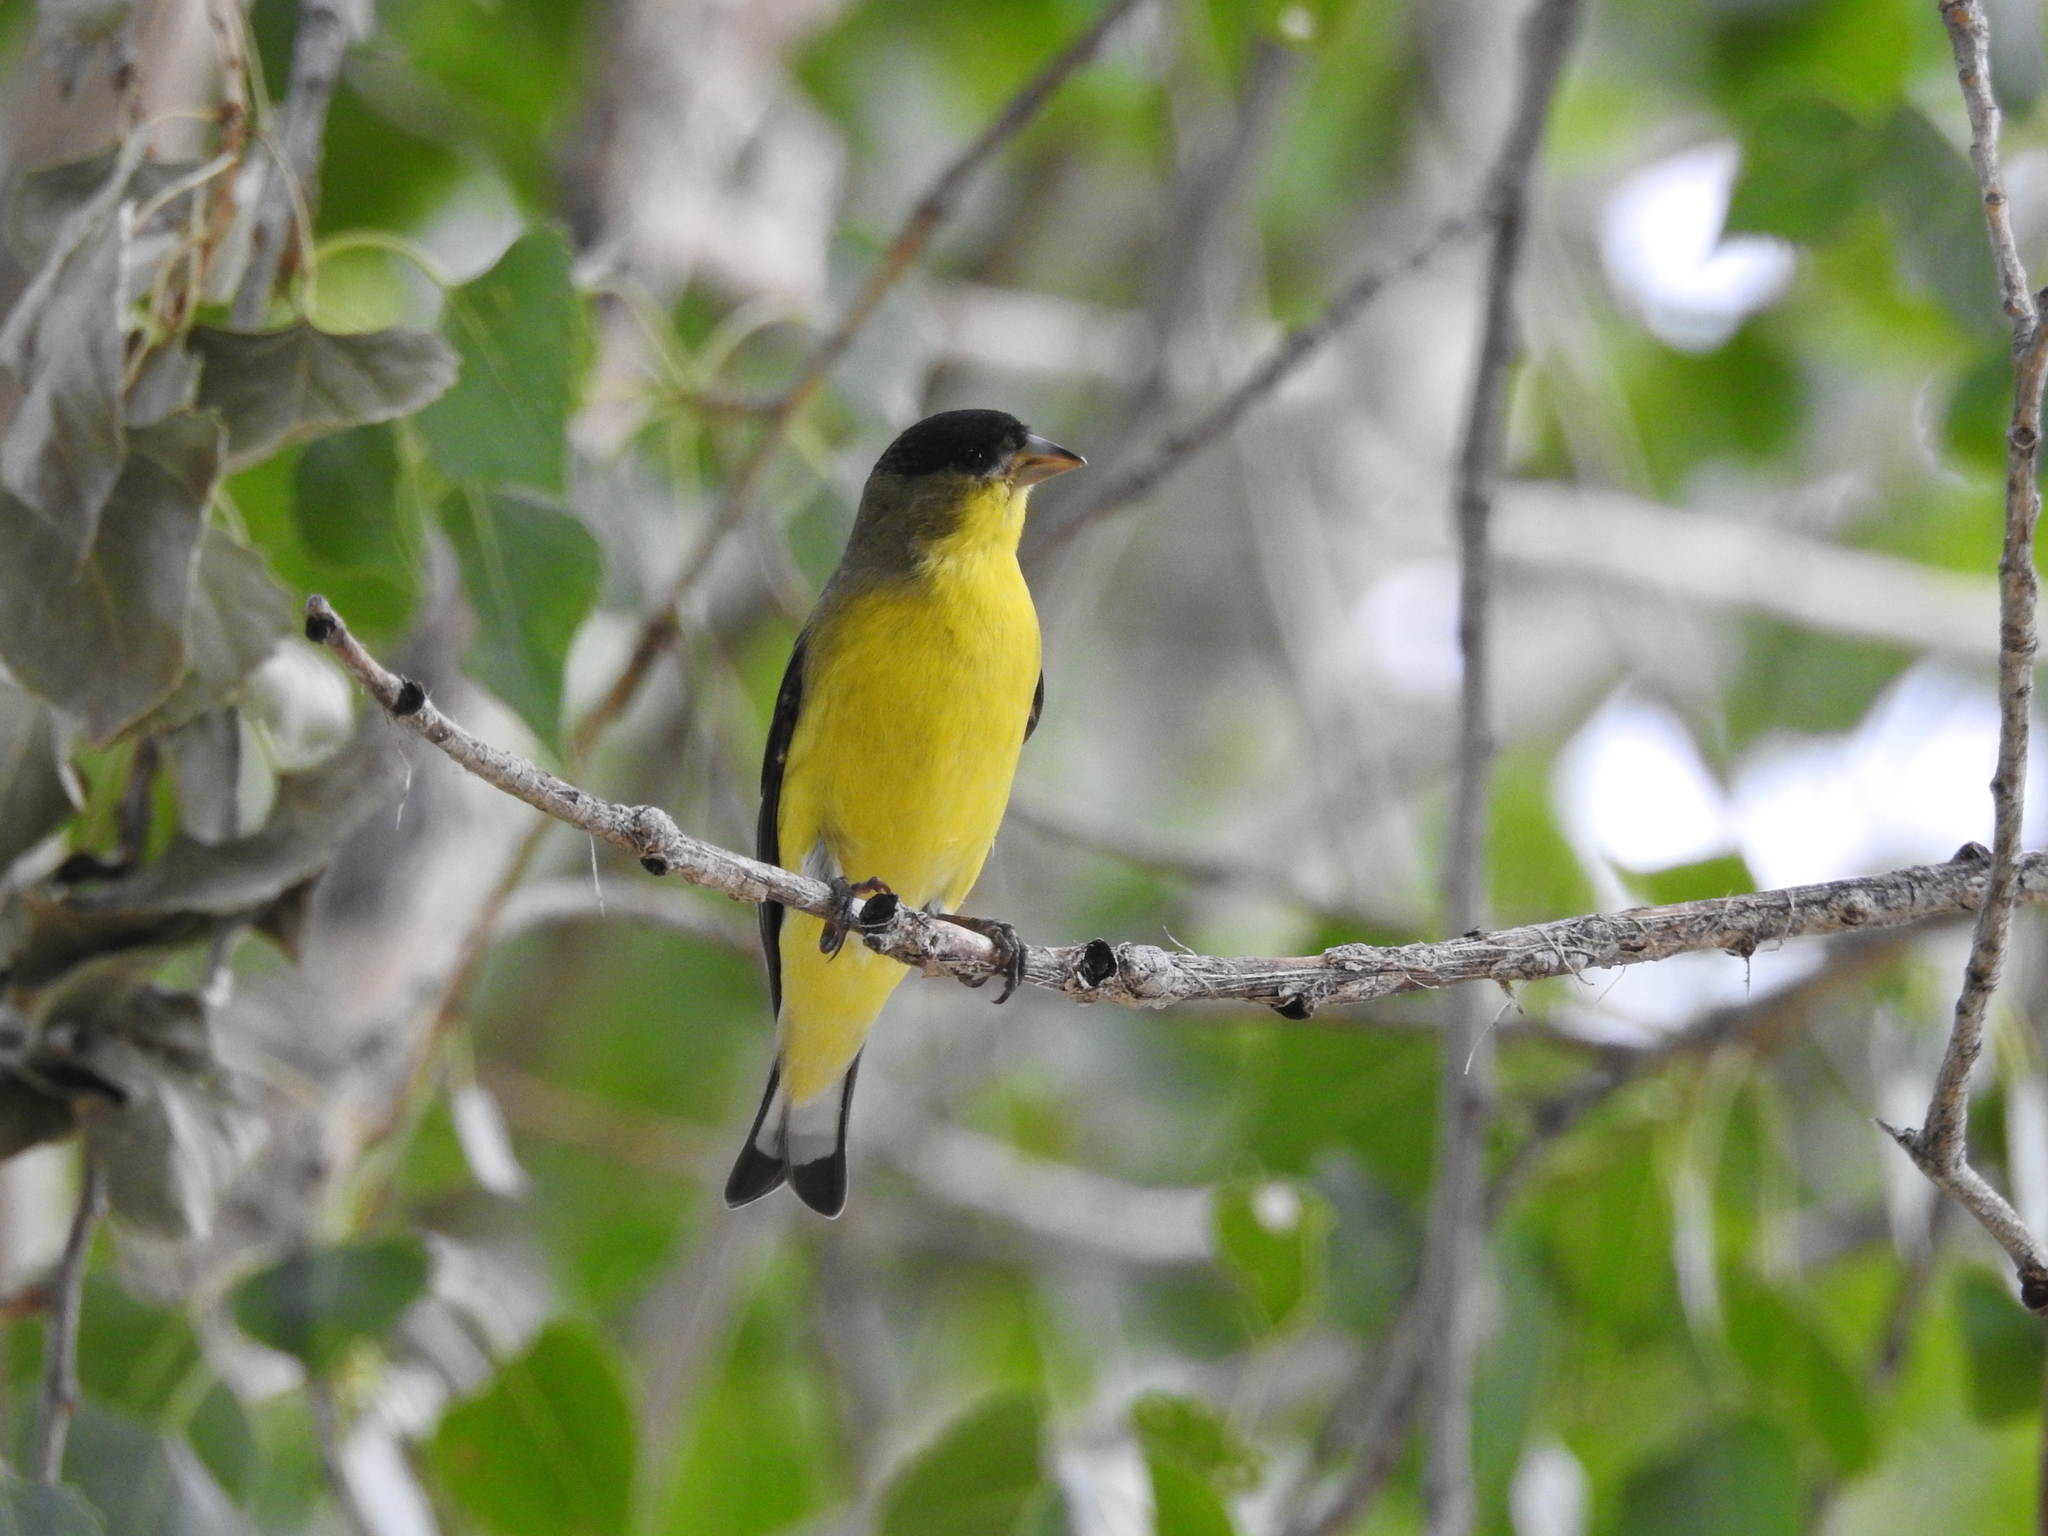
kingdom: Animalia
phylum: Chordata
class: Aves
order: Passeriformes
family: Fringillidae
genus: Spinus
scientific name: Spinus psaltria
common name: Lesser goldfinch
